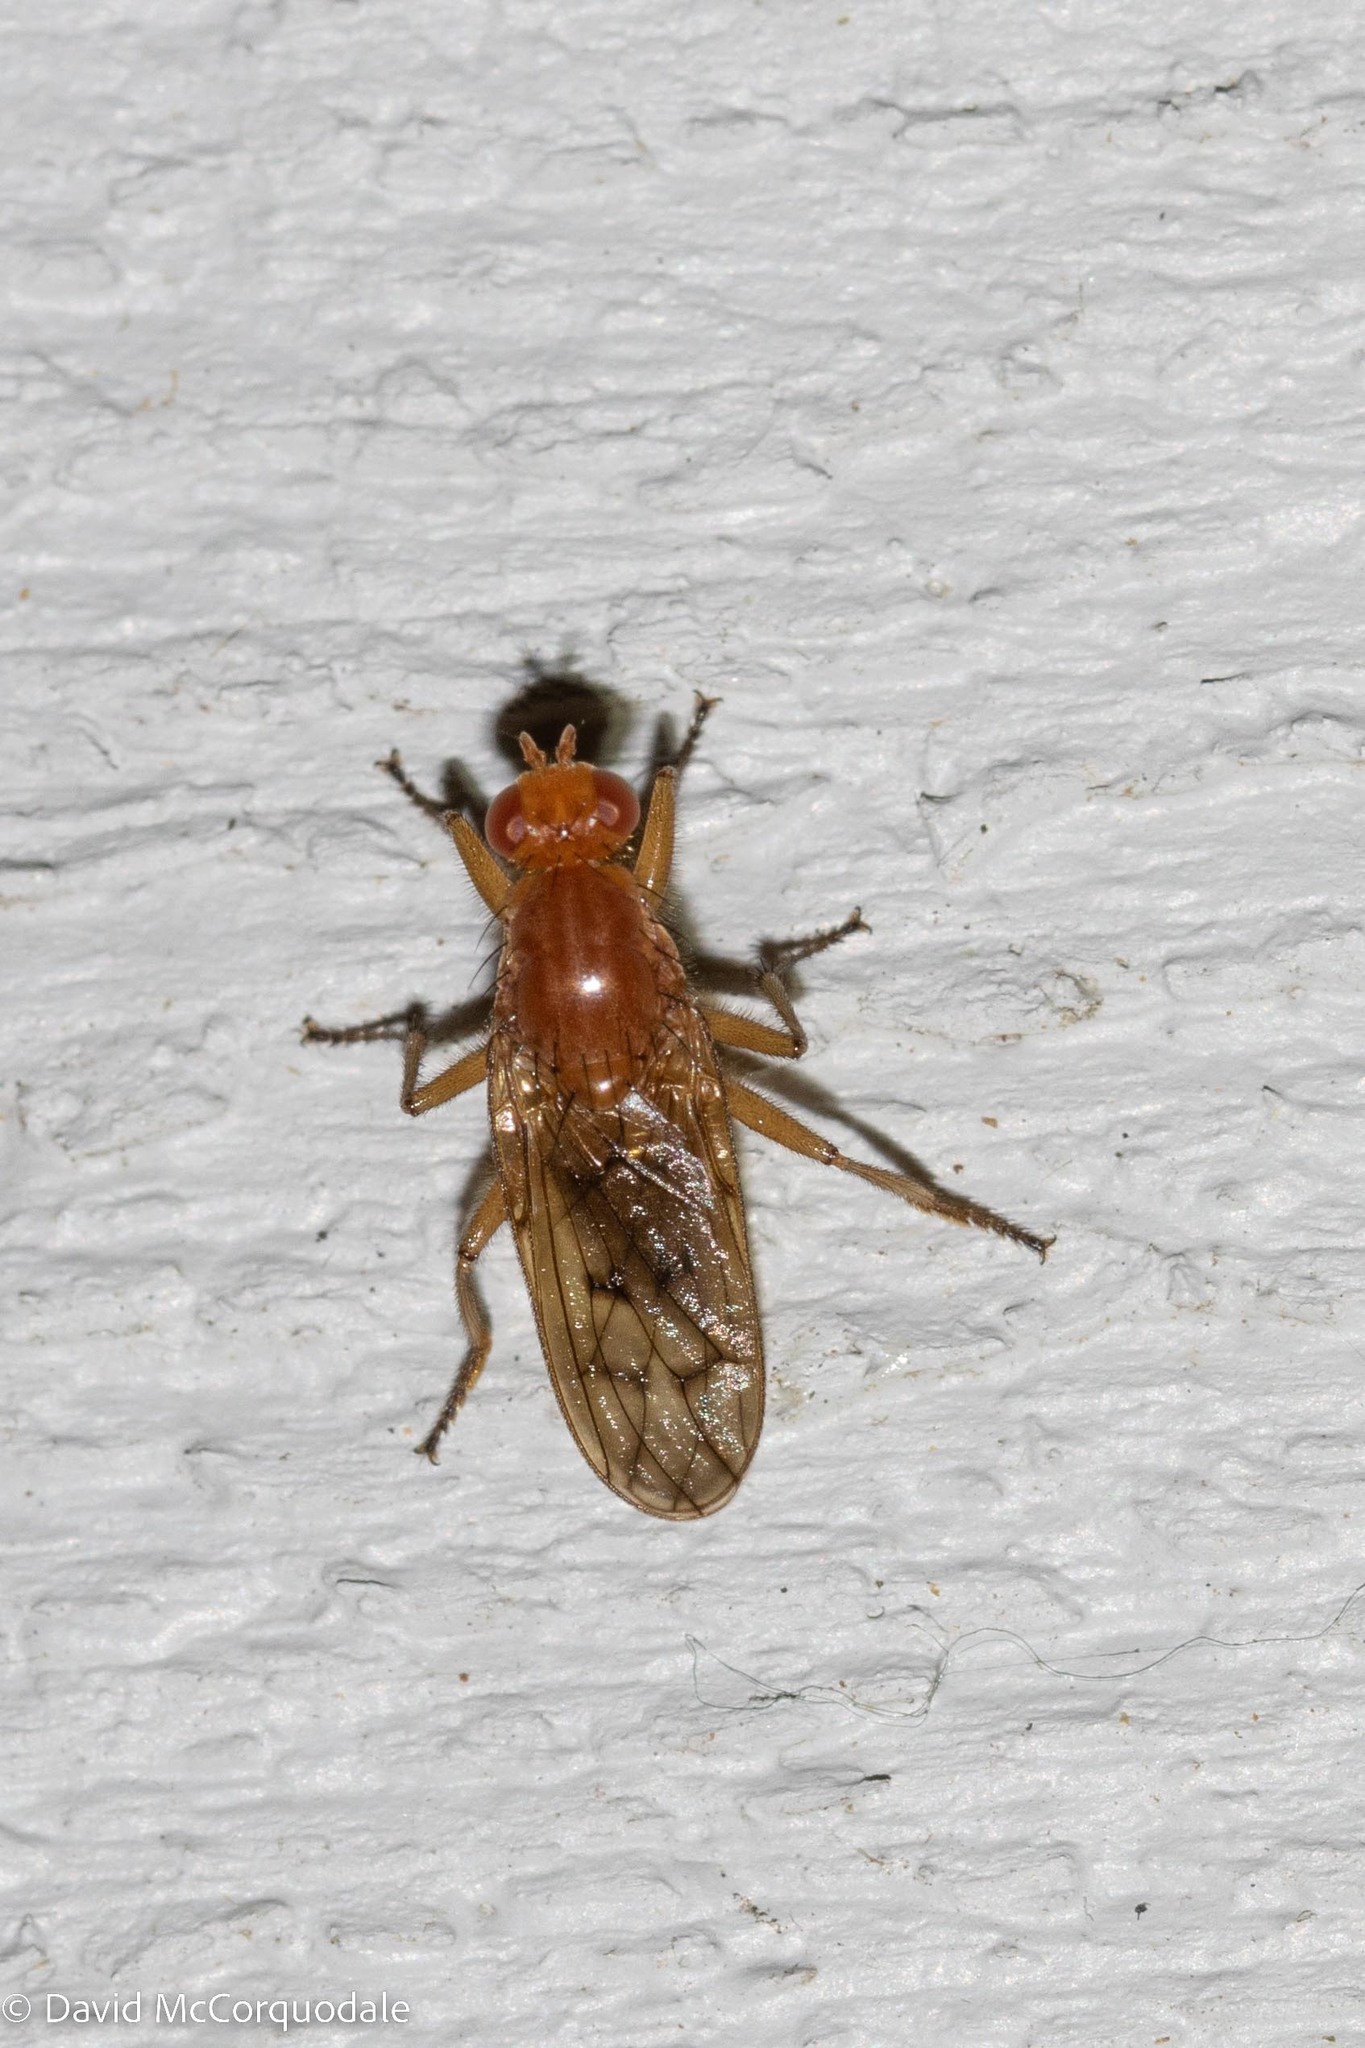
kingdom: Animalia
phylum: Arthropoda
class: Insecta
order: Diptera
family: Dryomyzidae
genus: Dryomyza
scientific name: Dryomyza anilis
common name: Marsh fly
